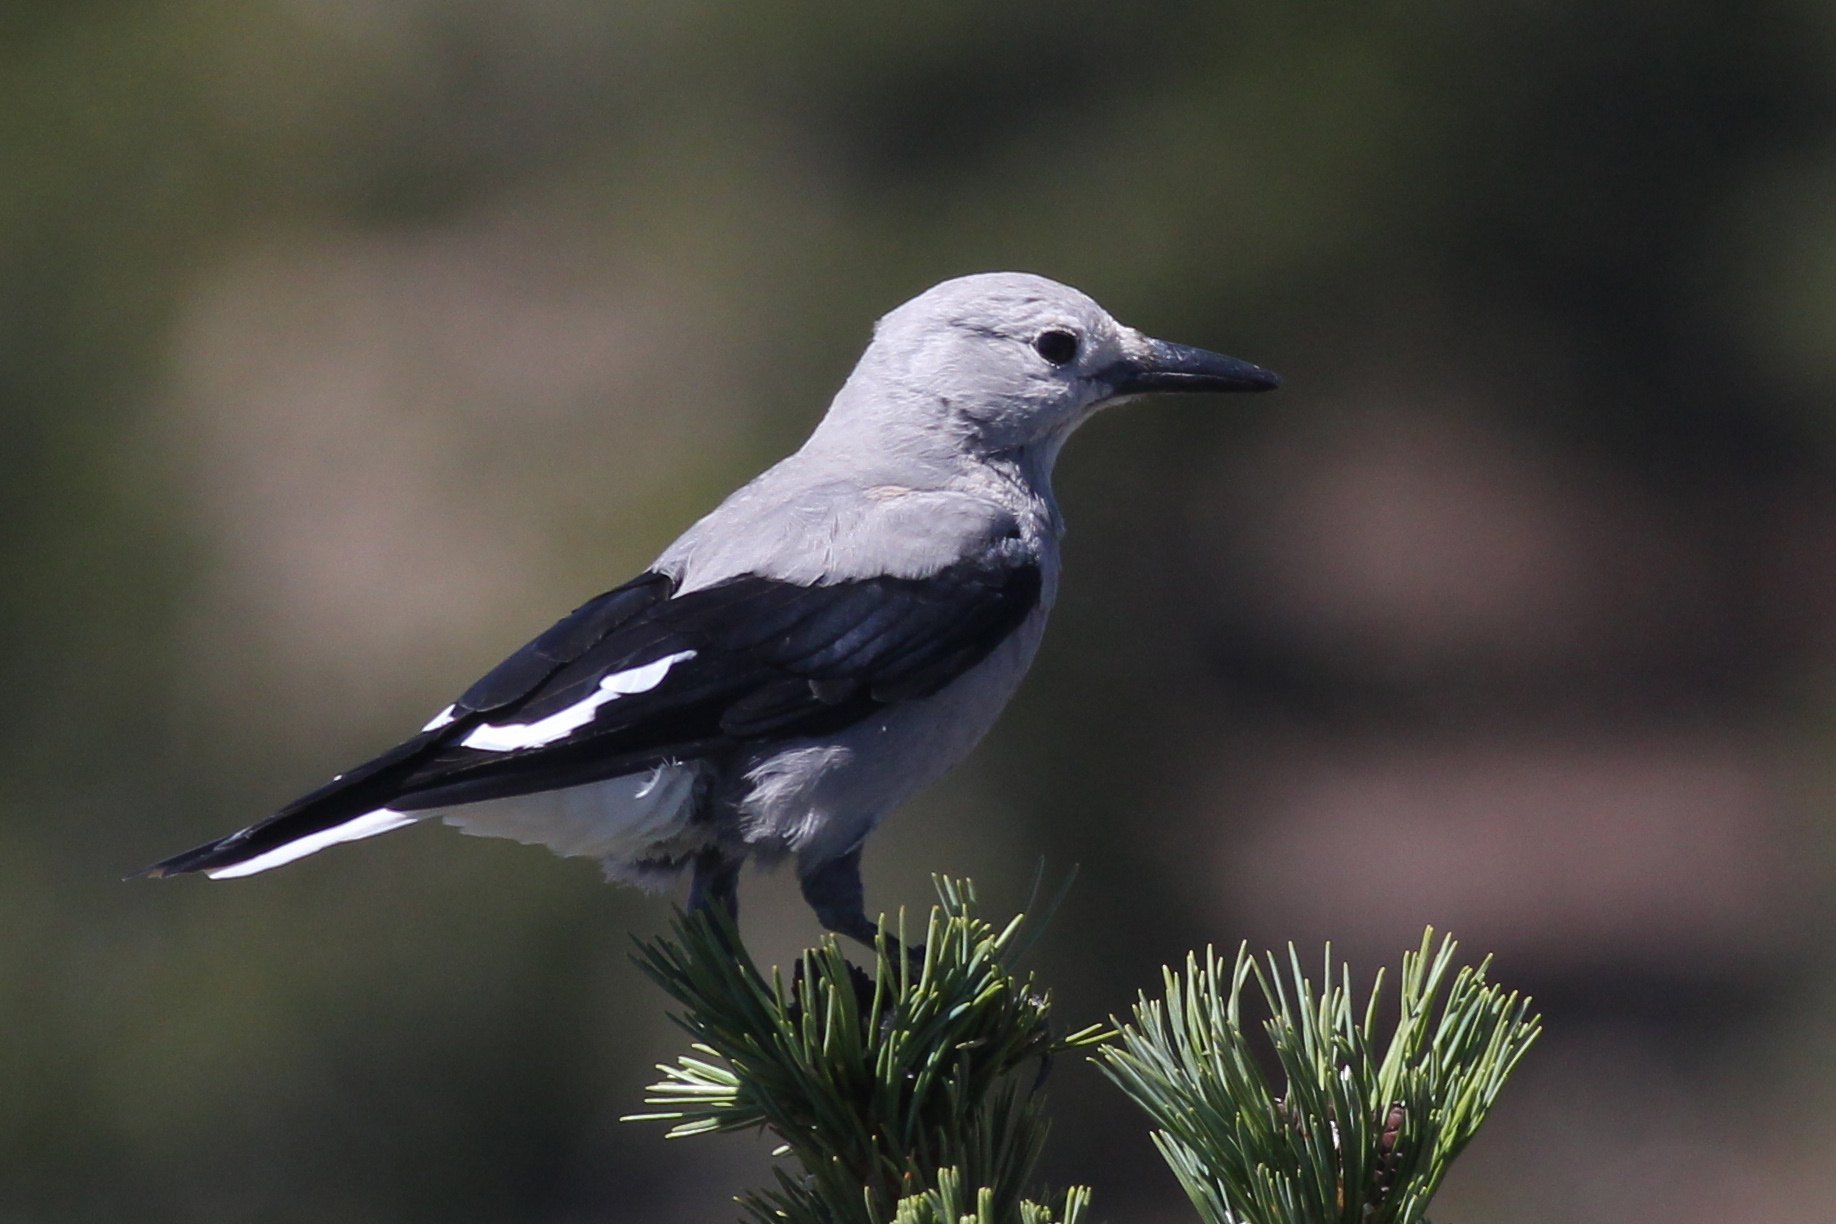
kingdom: Animalia
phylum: Chordata
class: Aves
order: Passeriformes
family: Corvidae
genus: Nucifraga
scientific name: Nucifraga columbiana
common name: Clark's nutcracker
